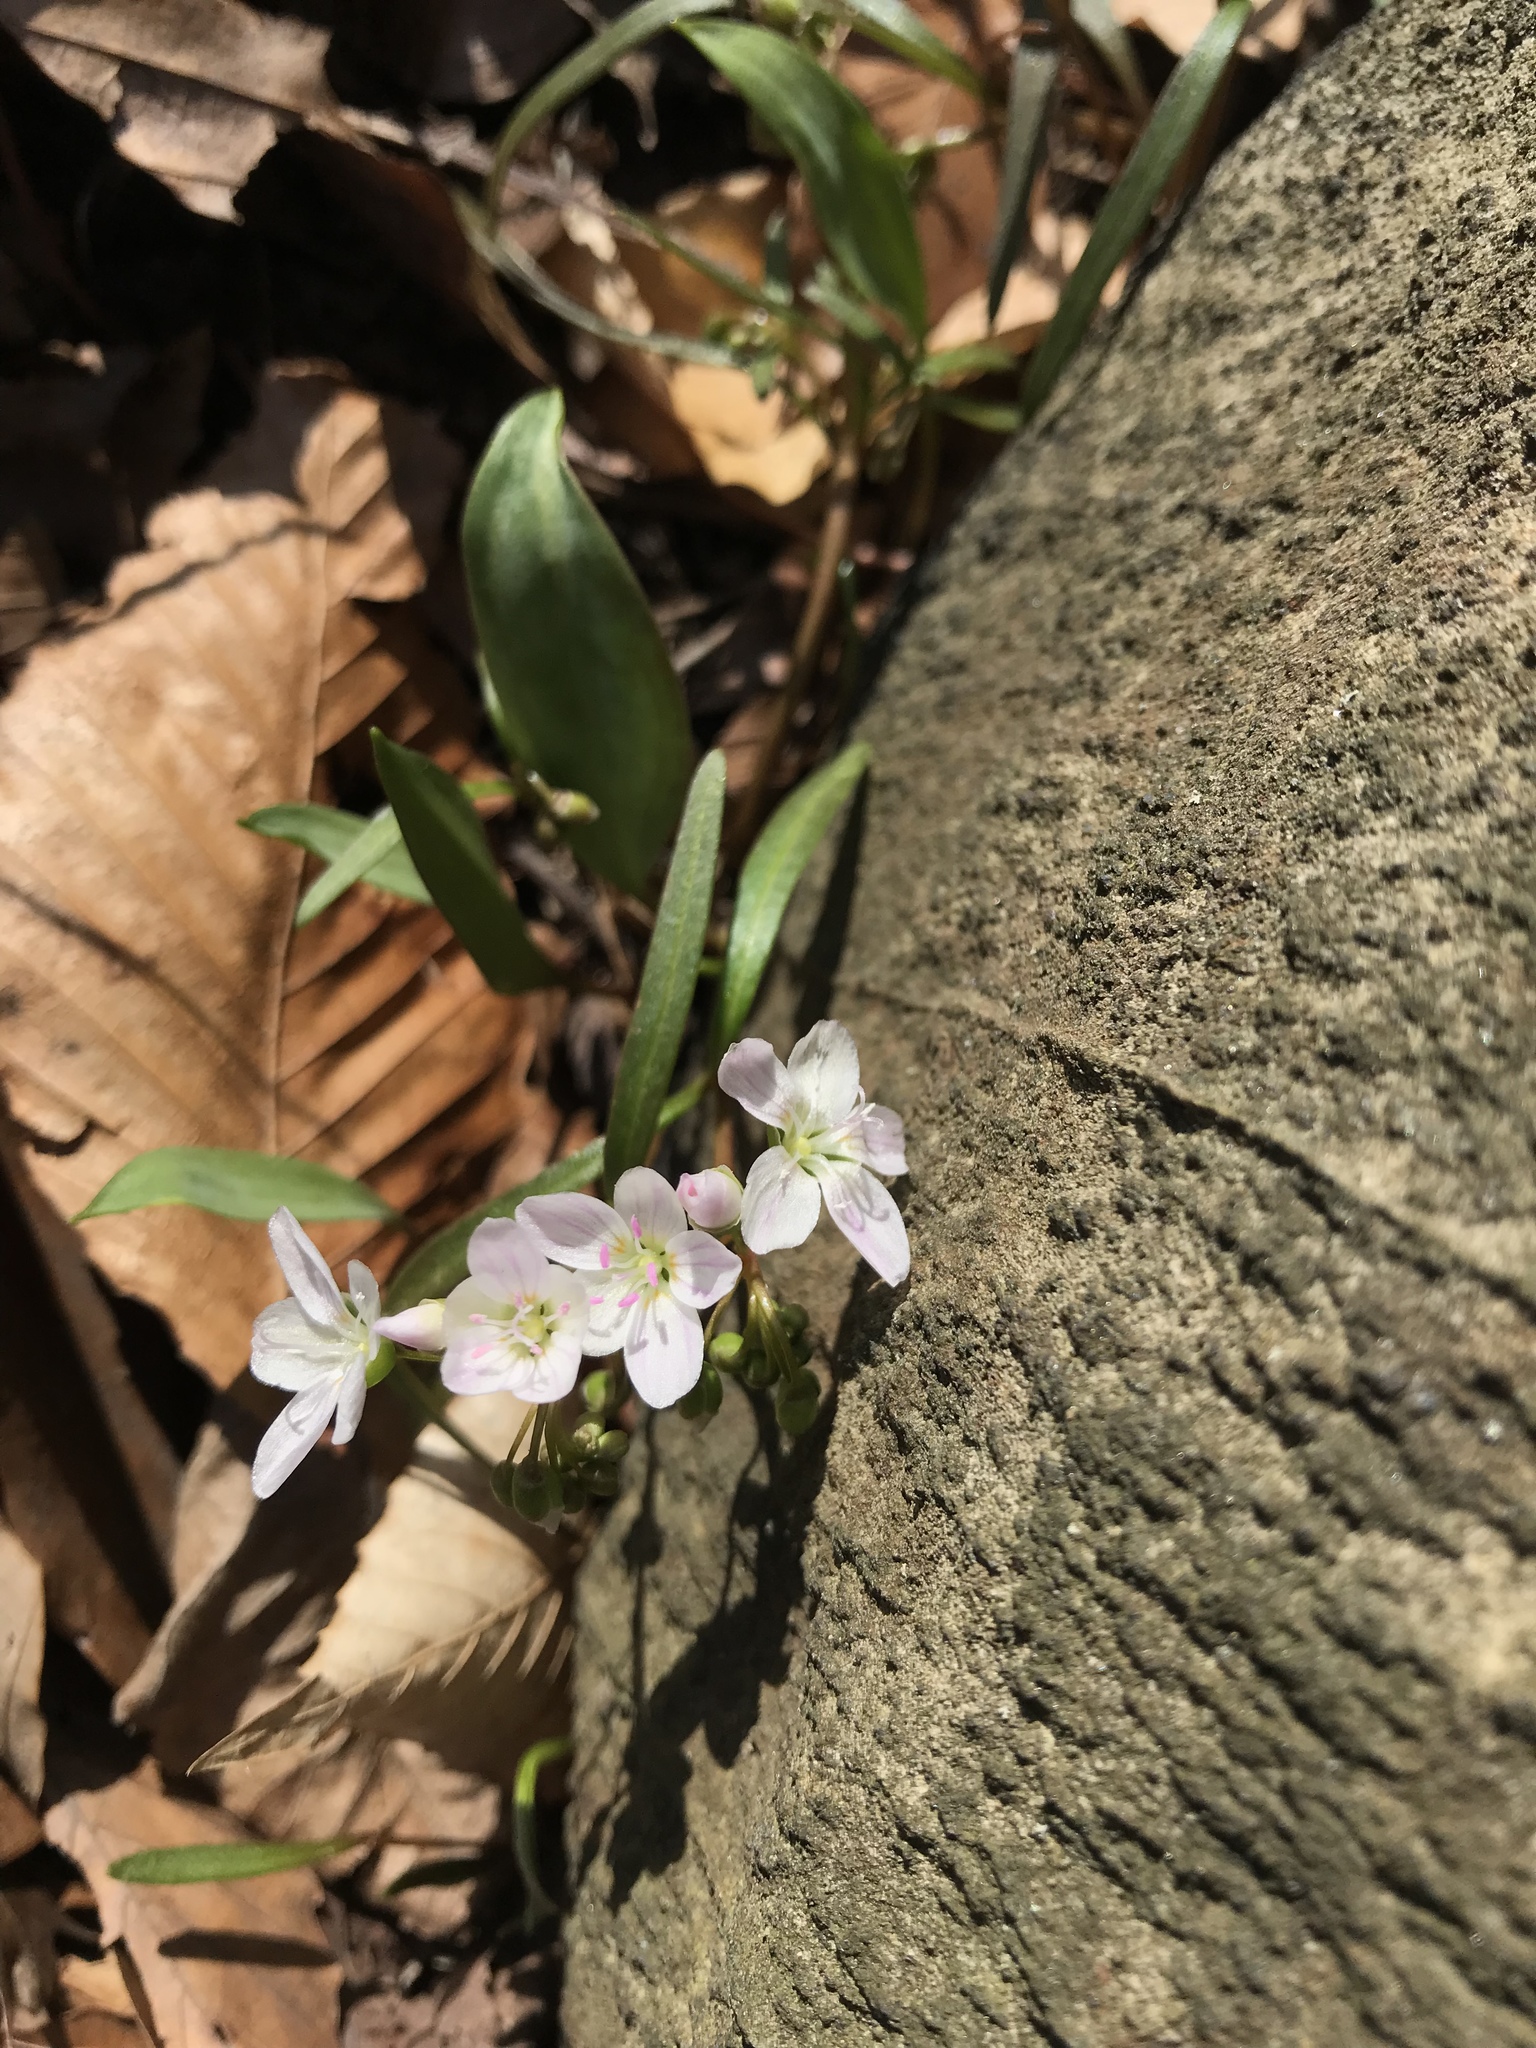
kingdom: Plantae
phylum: Tracheophyta
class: Magnoliopsida
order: Caryophyllales
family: Montiaceae
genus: Claytonia
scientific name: Claytonia virginica
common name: Virginia springbeauty
